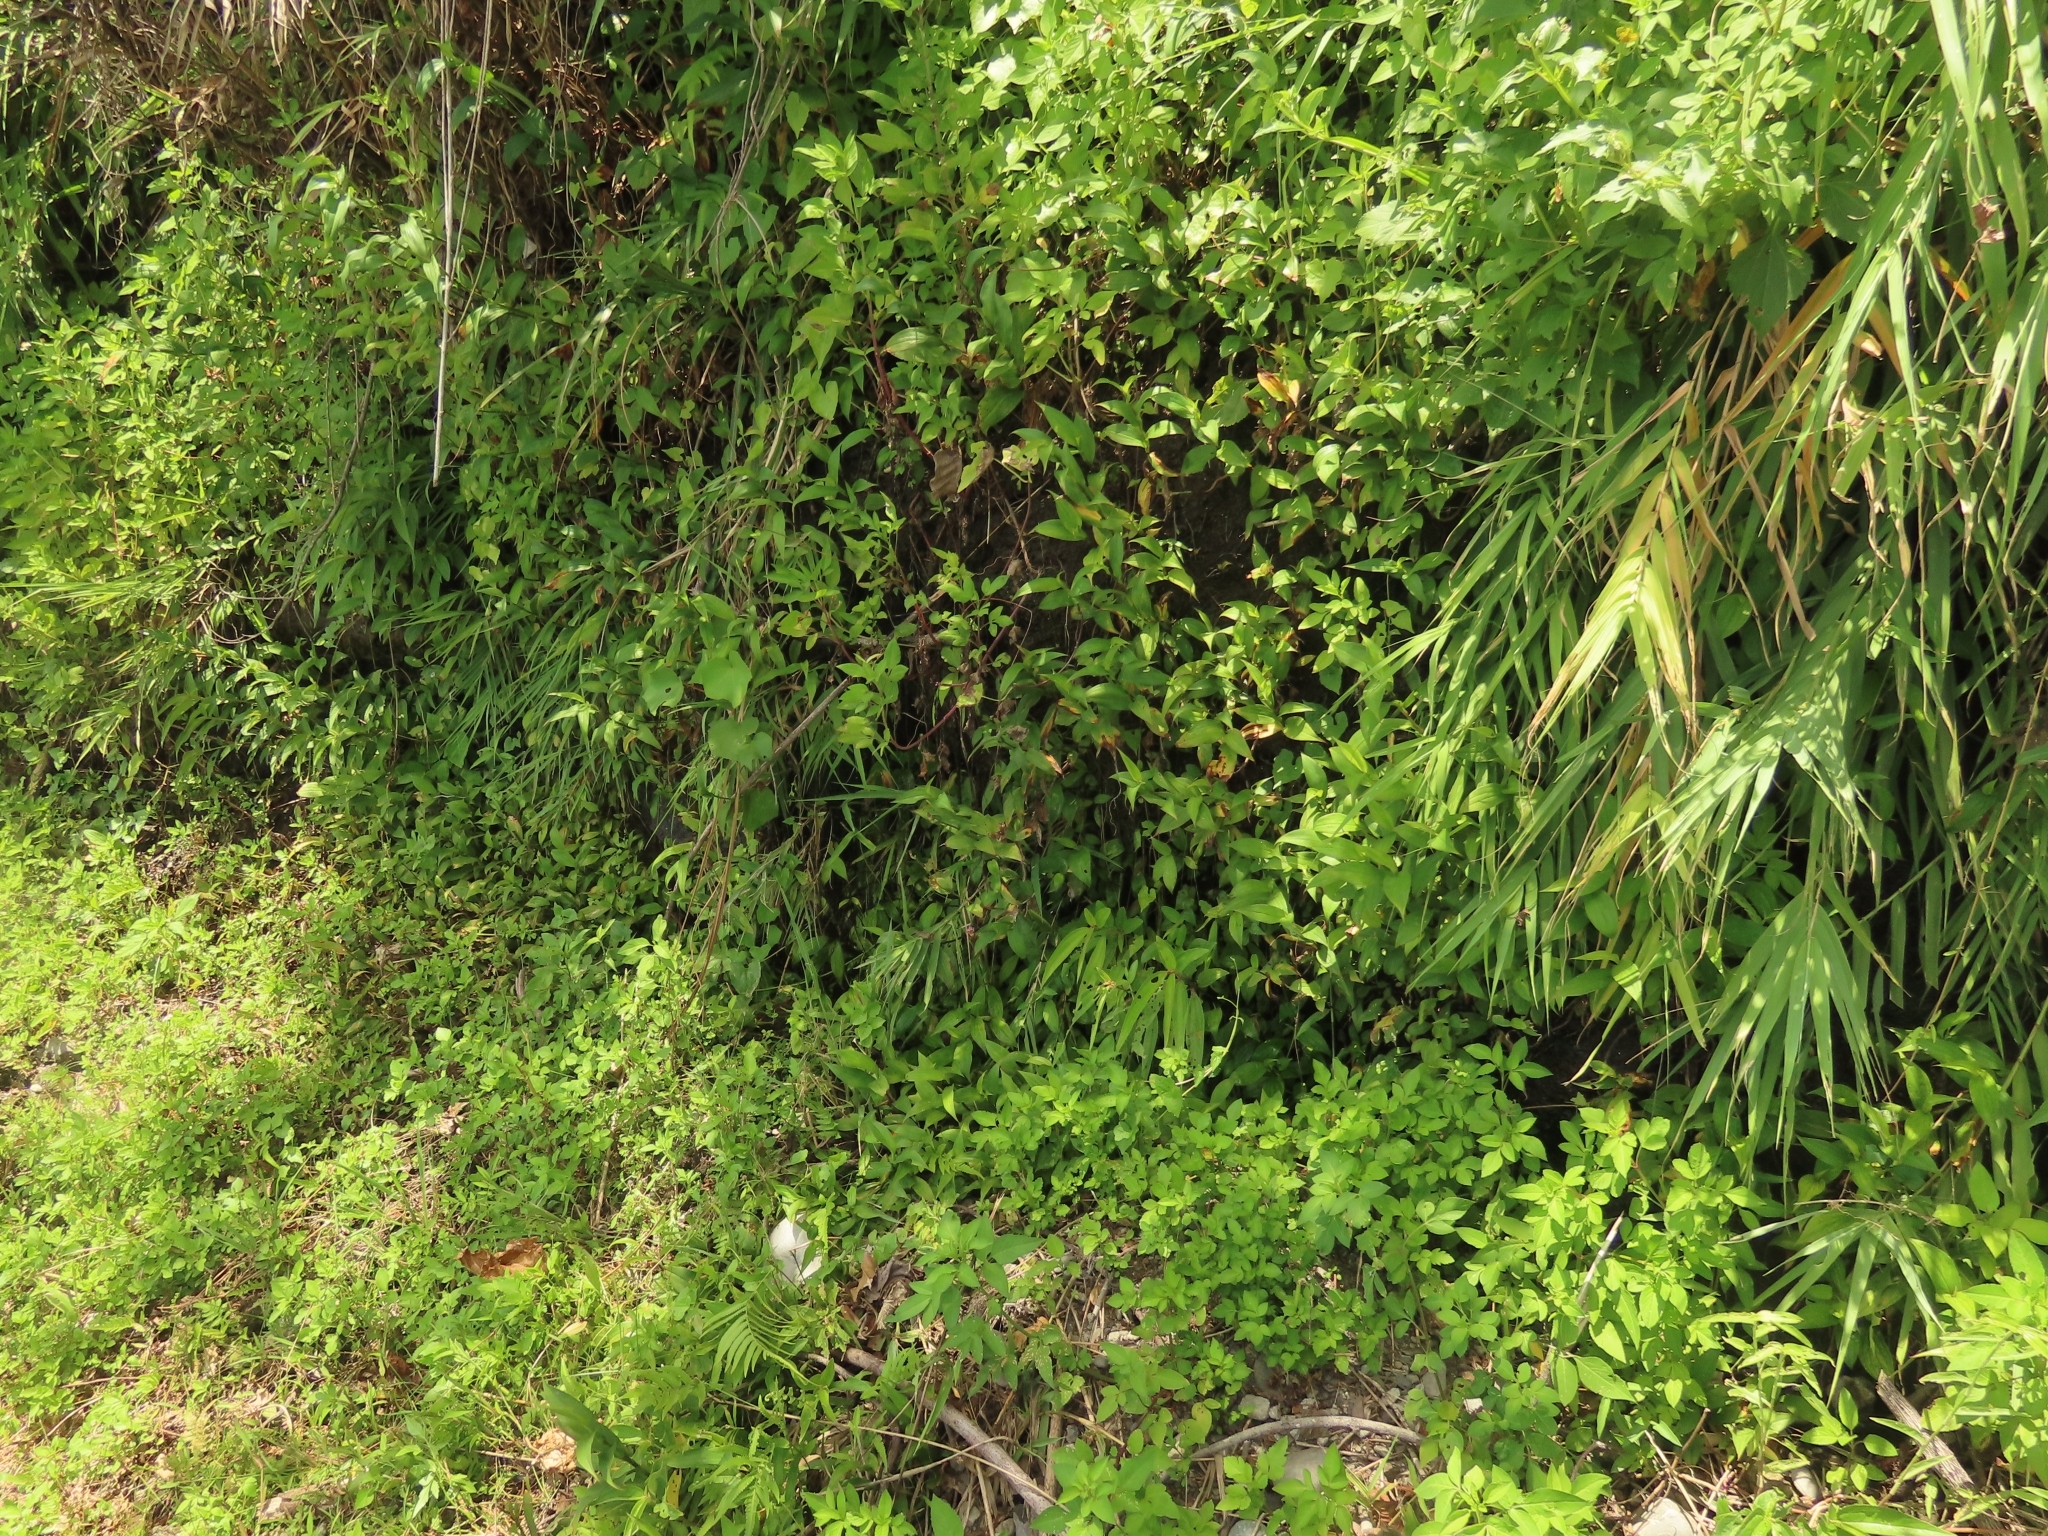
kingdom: Plantae
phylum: Tracheophyta
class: Liliopsida
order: Liliales
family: Liliaceae
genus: Tricyrtis
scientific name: Tricyrtis formosana
